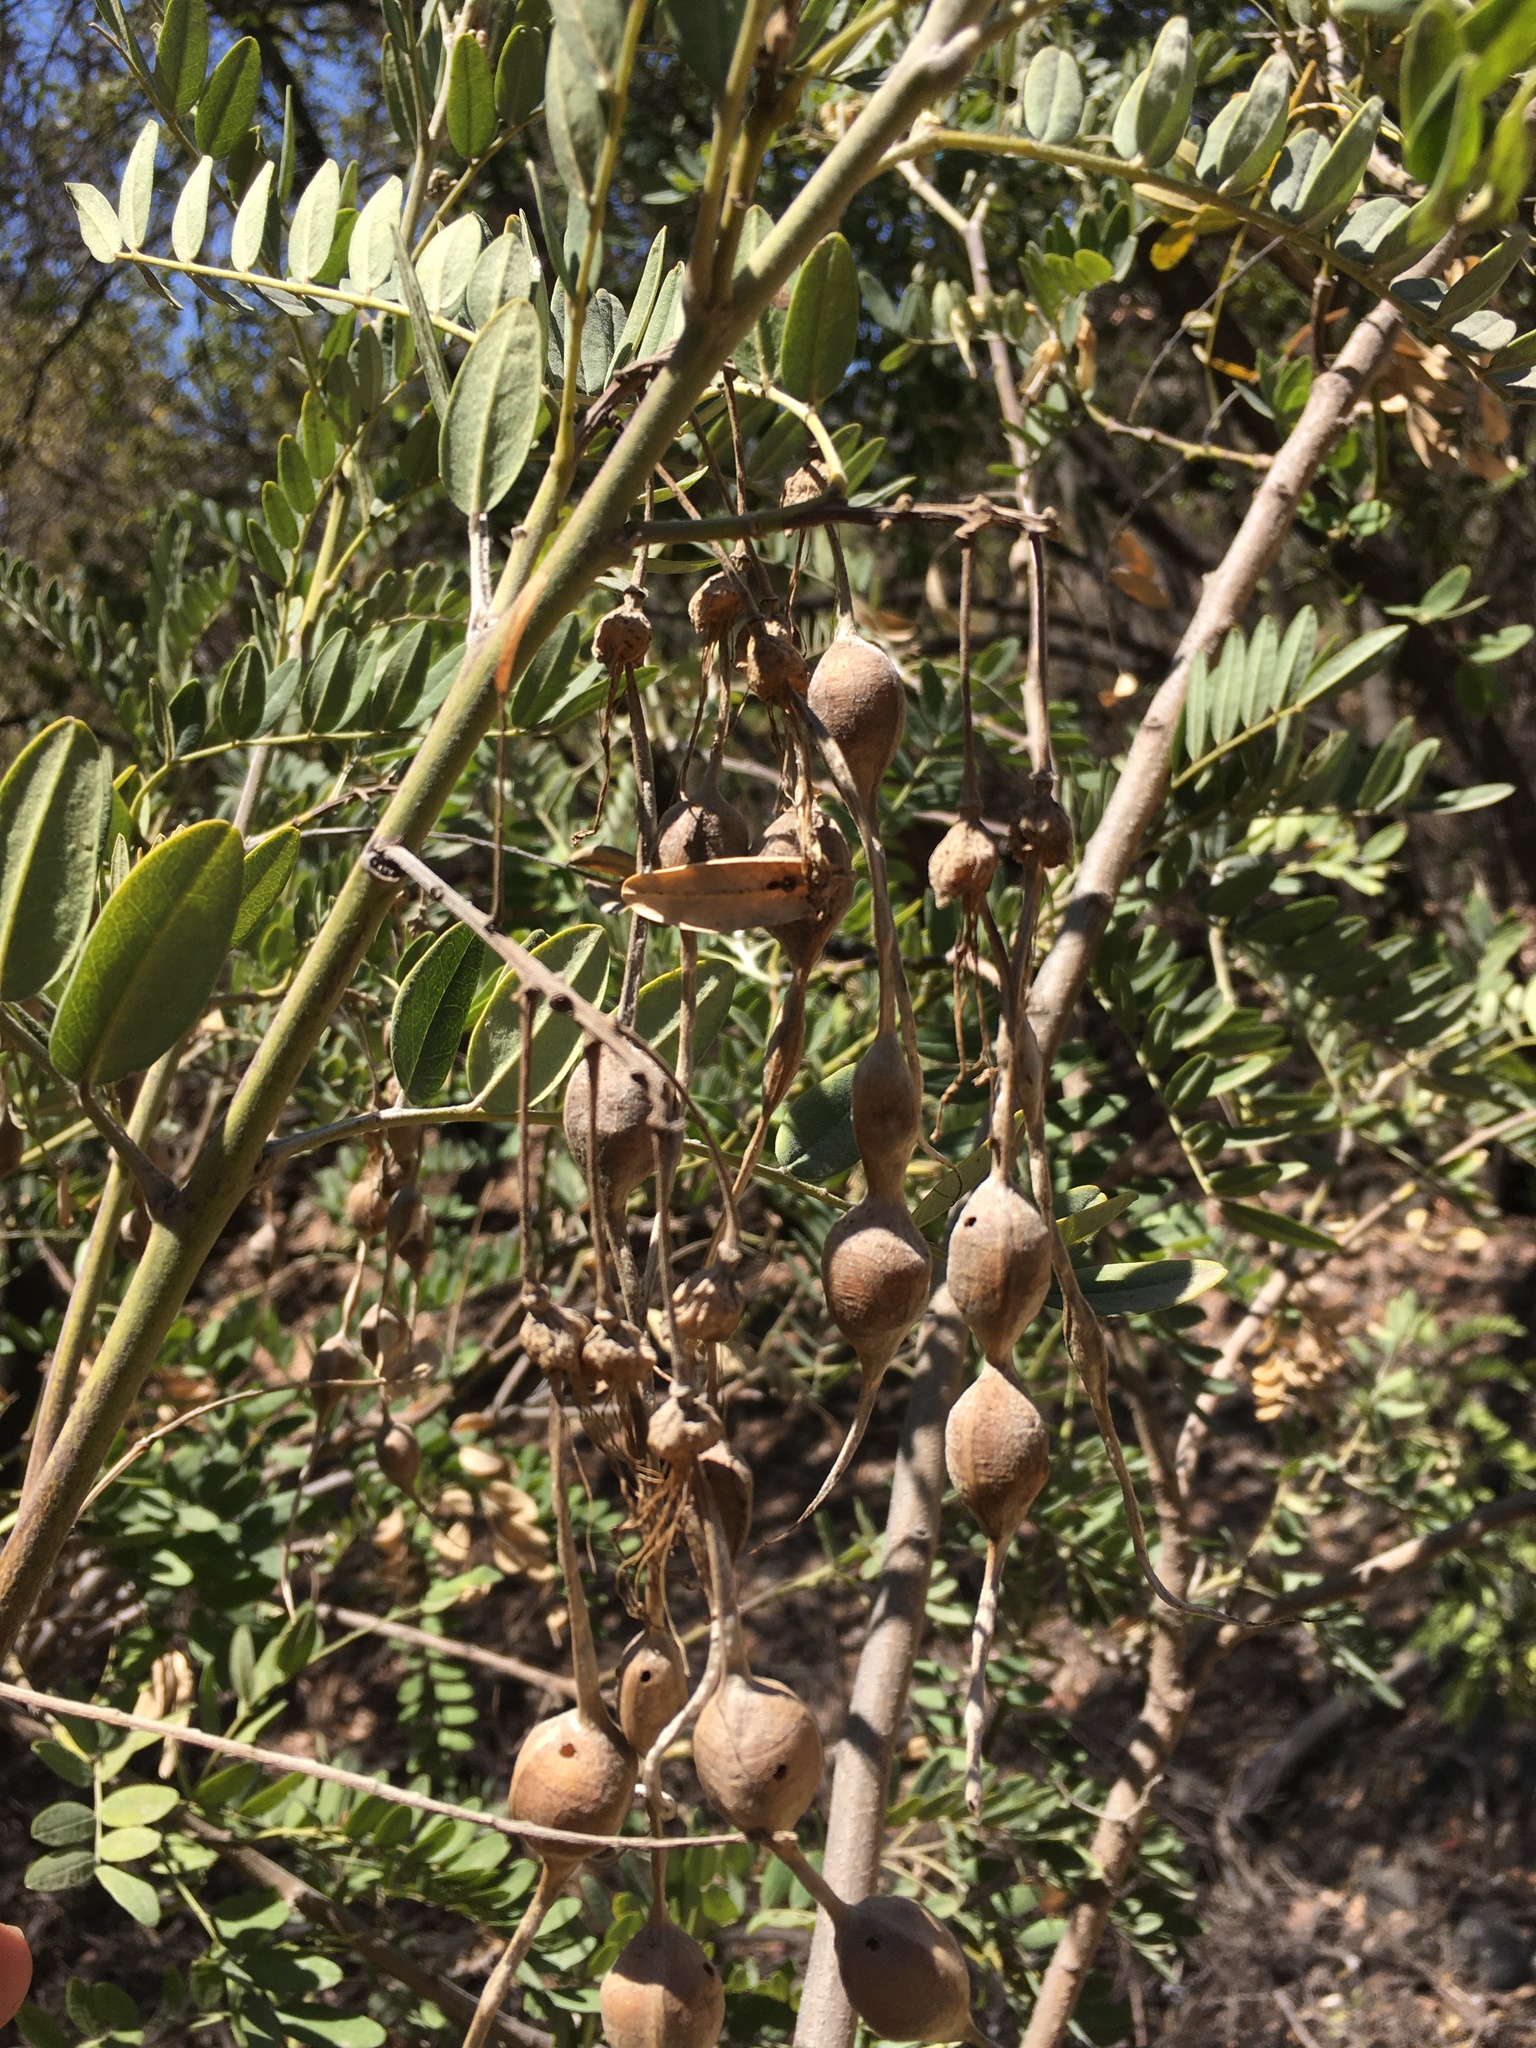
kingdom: Plantae
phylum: Tracheophyta
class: Magnoliopsida
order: Fabales
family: Fabaceae
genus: Sophora
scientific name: Sophora macrocarpa
